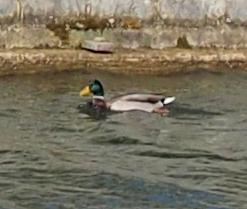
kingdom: Animalia
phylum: Chordata
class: Aves
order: Anseriformes
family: Anatidae
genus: Anas
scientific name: Anas platyrhynchos
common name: Mallard
